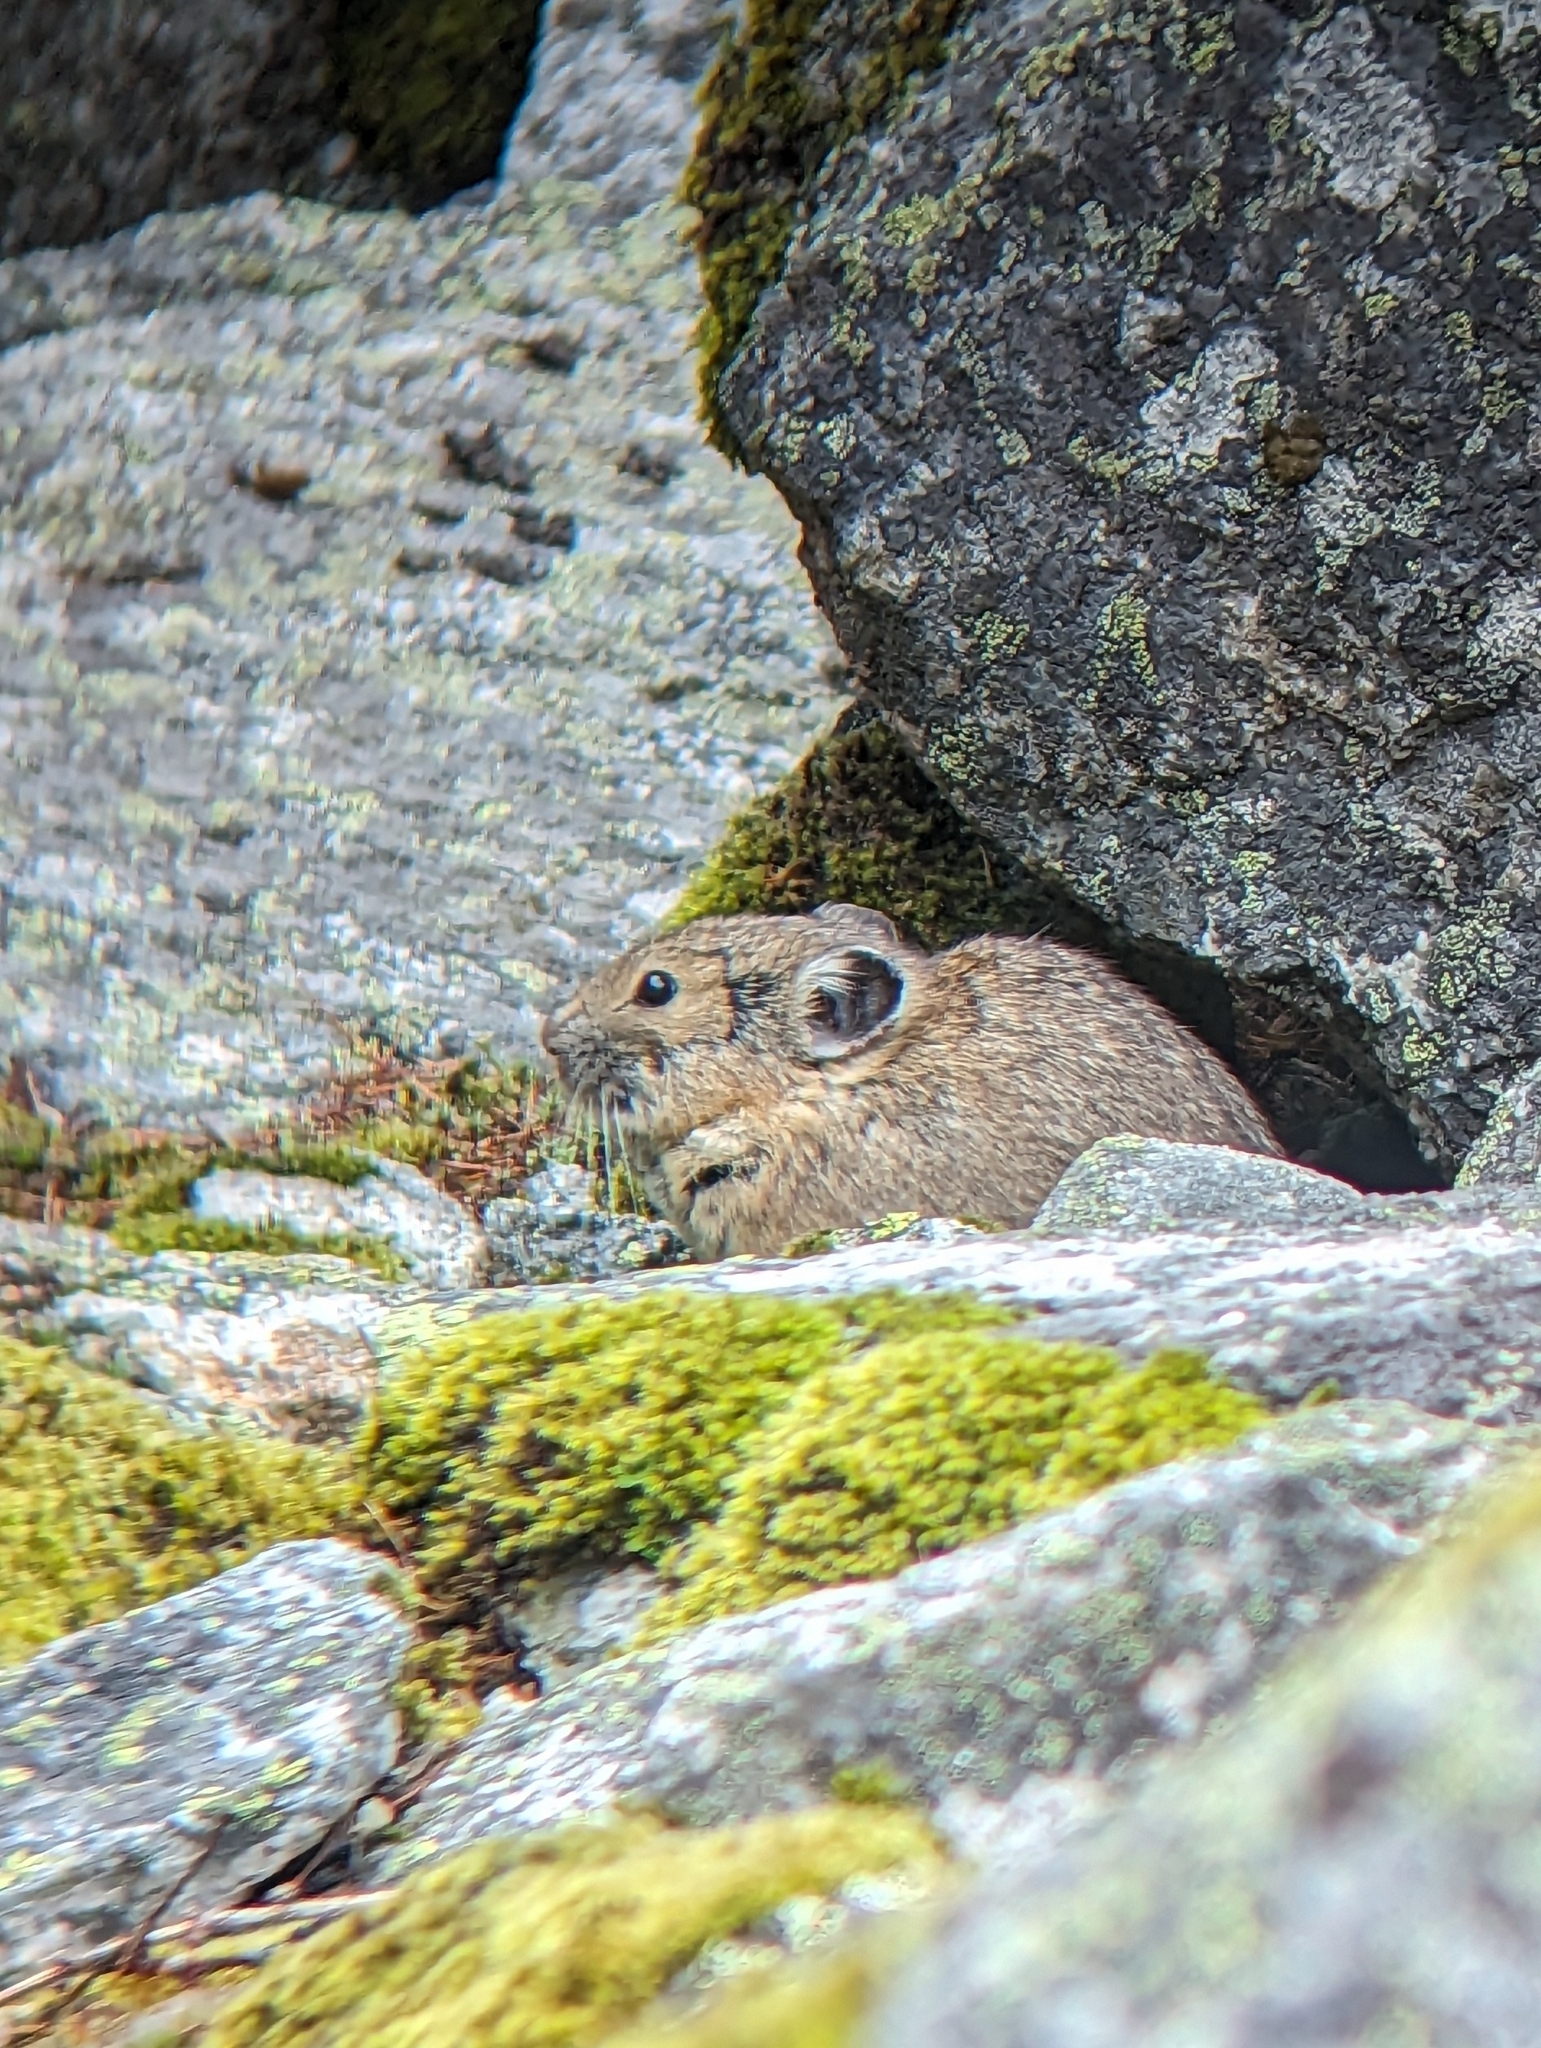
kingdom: Animalia
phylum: Chordata
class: Mammalia
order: Lagomorpha
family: Ochotonidae
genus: Ochotona
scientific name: Ochotona princeps
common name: American pika
